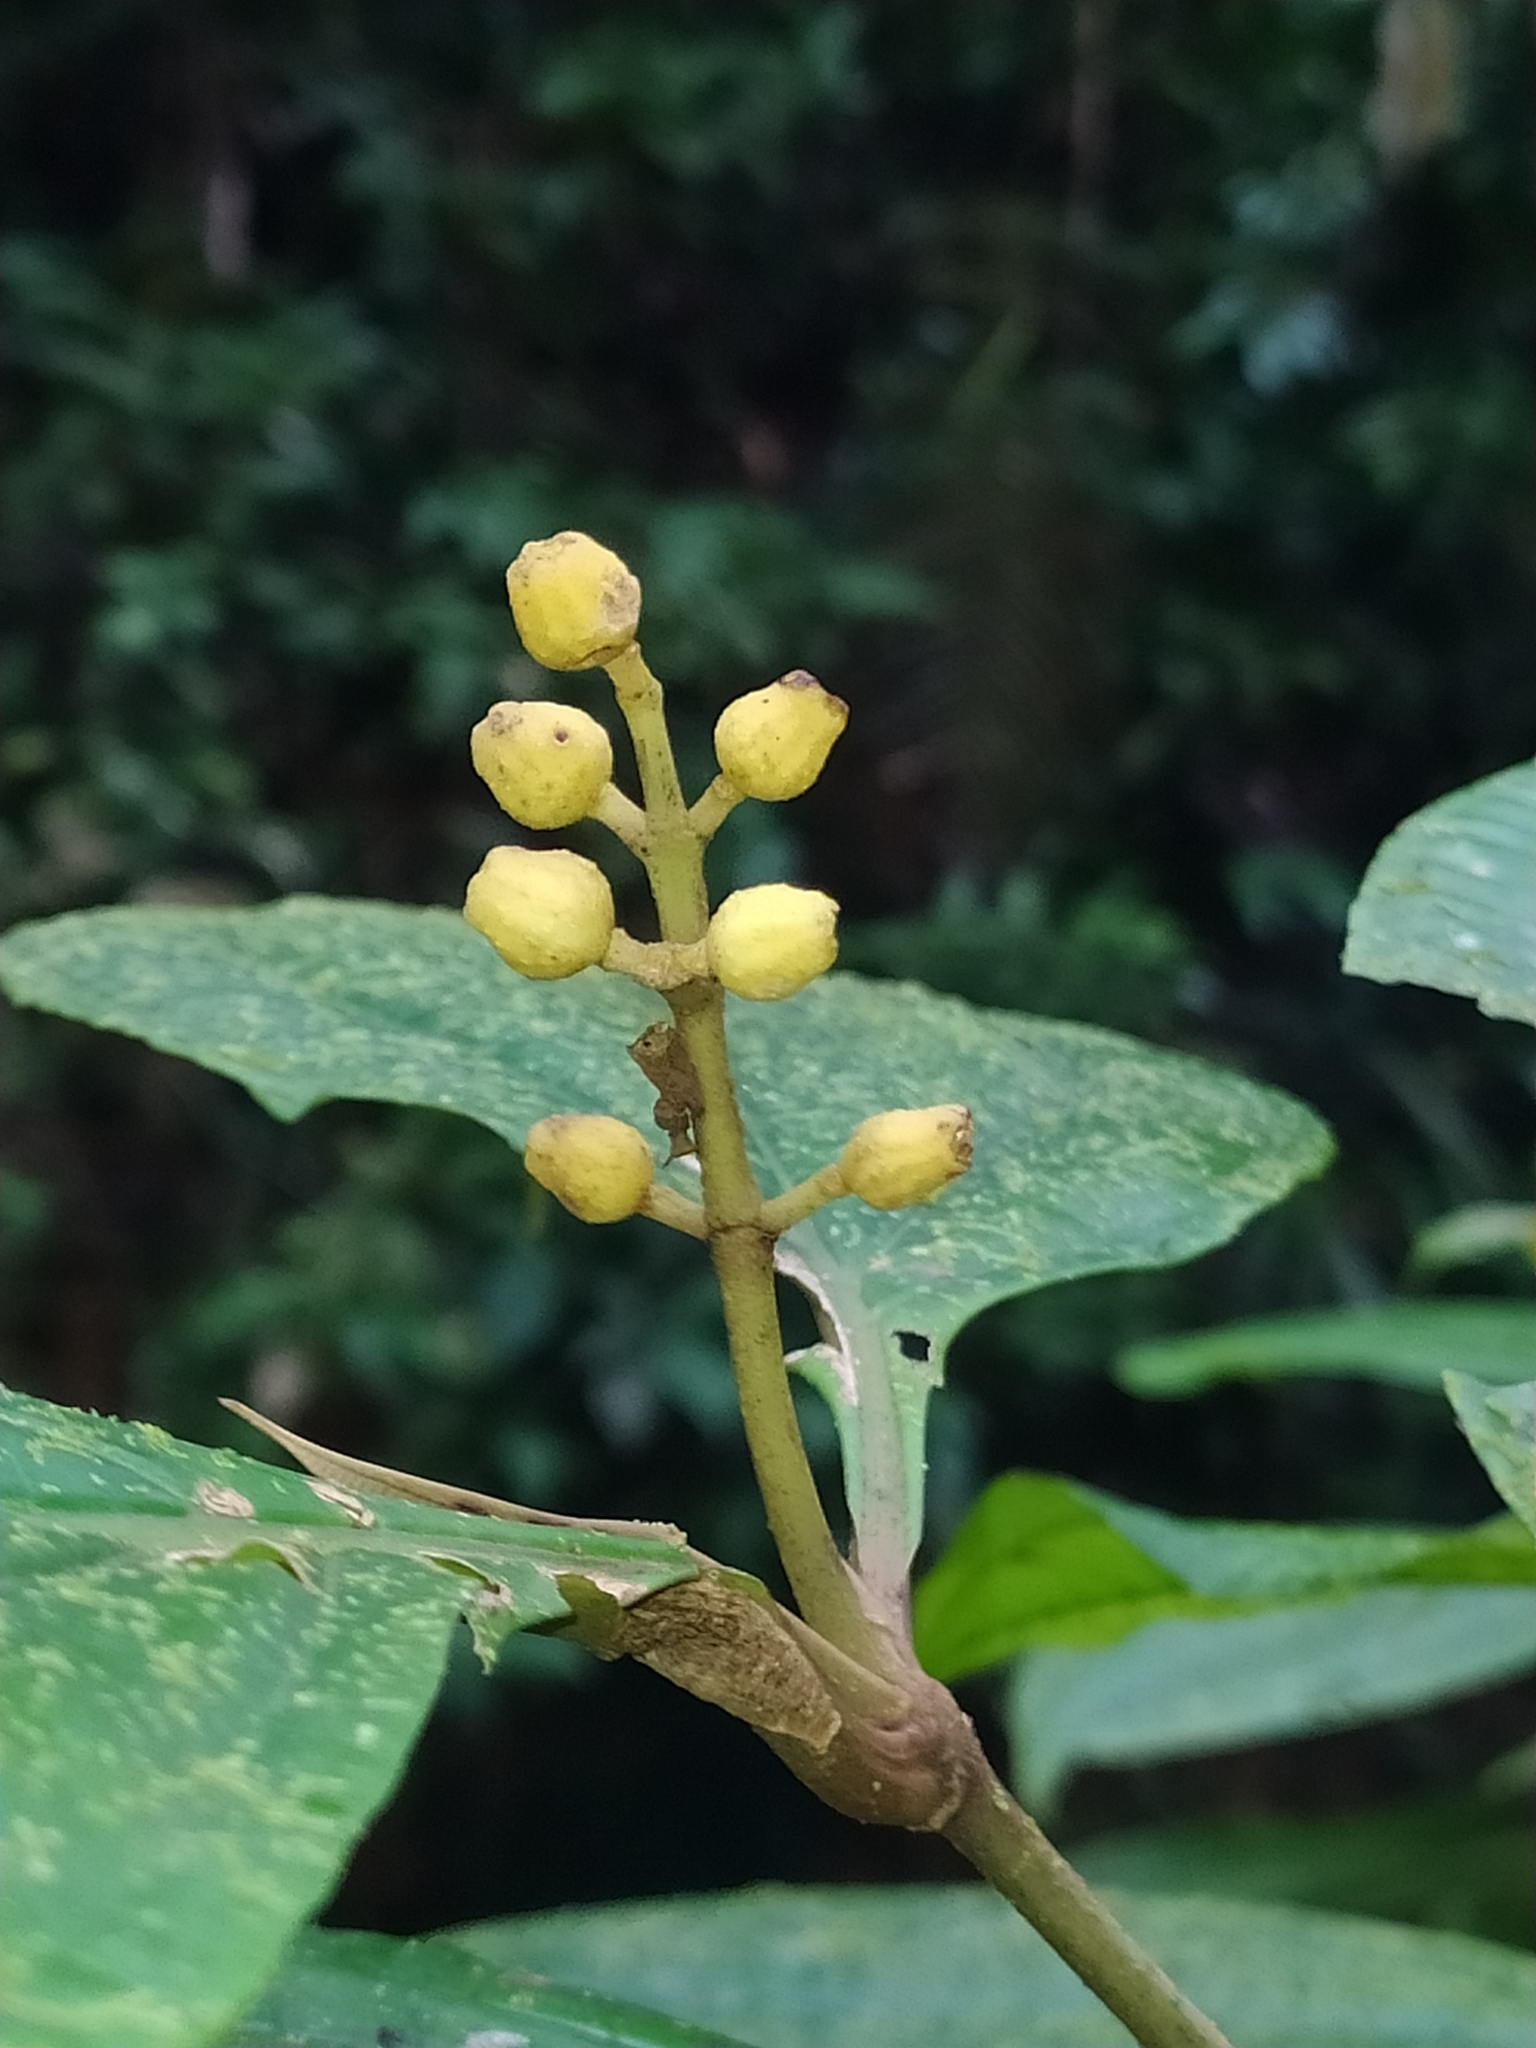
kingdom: Plantae
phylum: Tracheophyta
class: Magnoliopsida
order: Myrtales
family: Melastomataceae
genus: Miconia
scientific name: Miconia oldemanii
